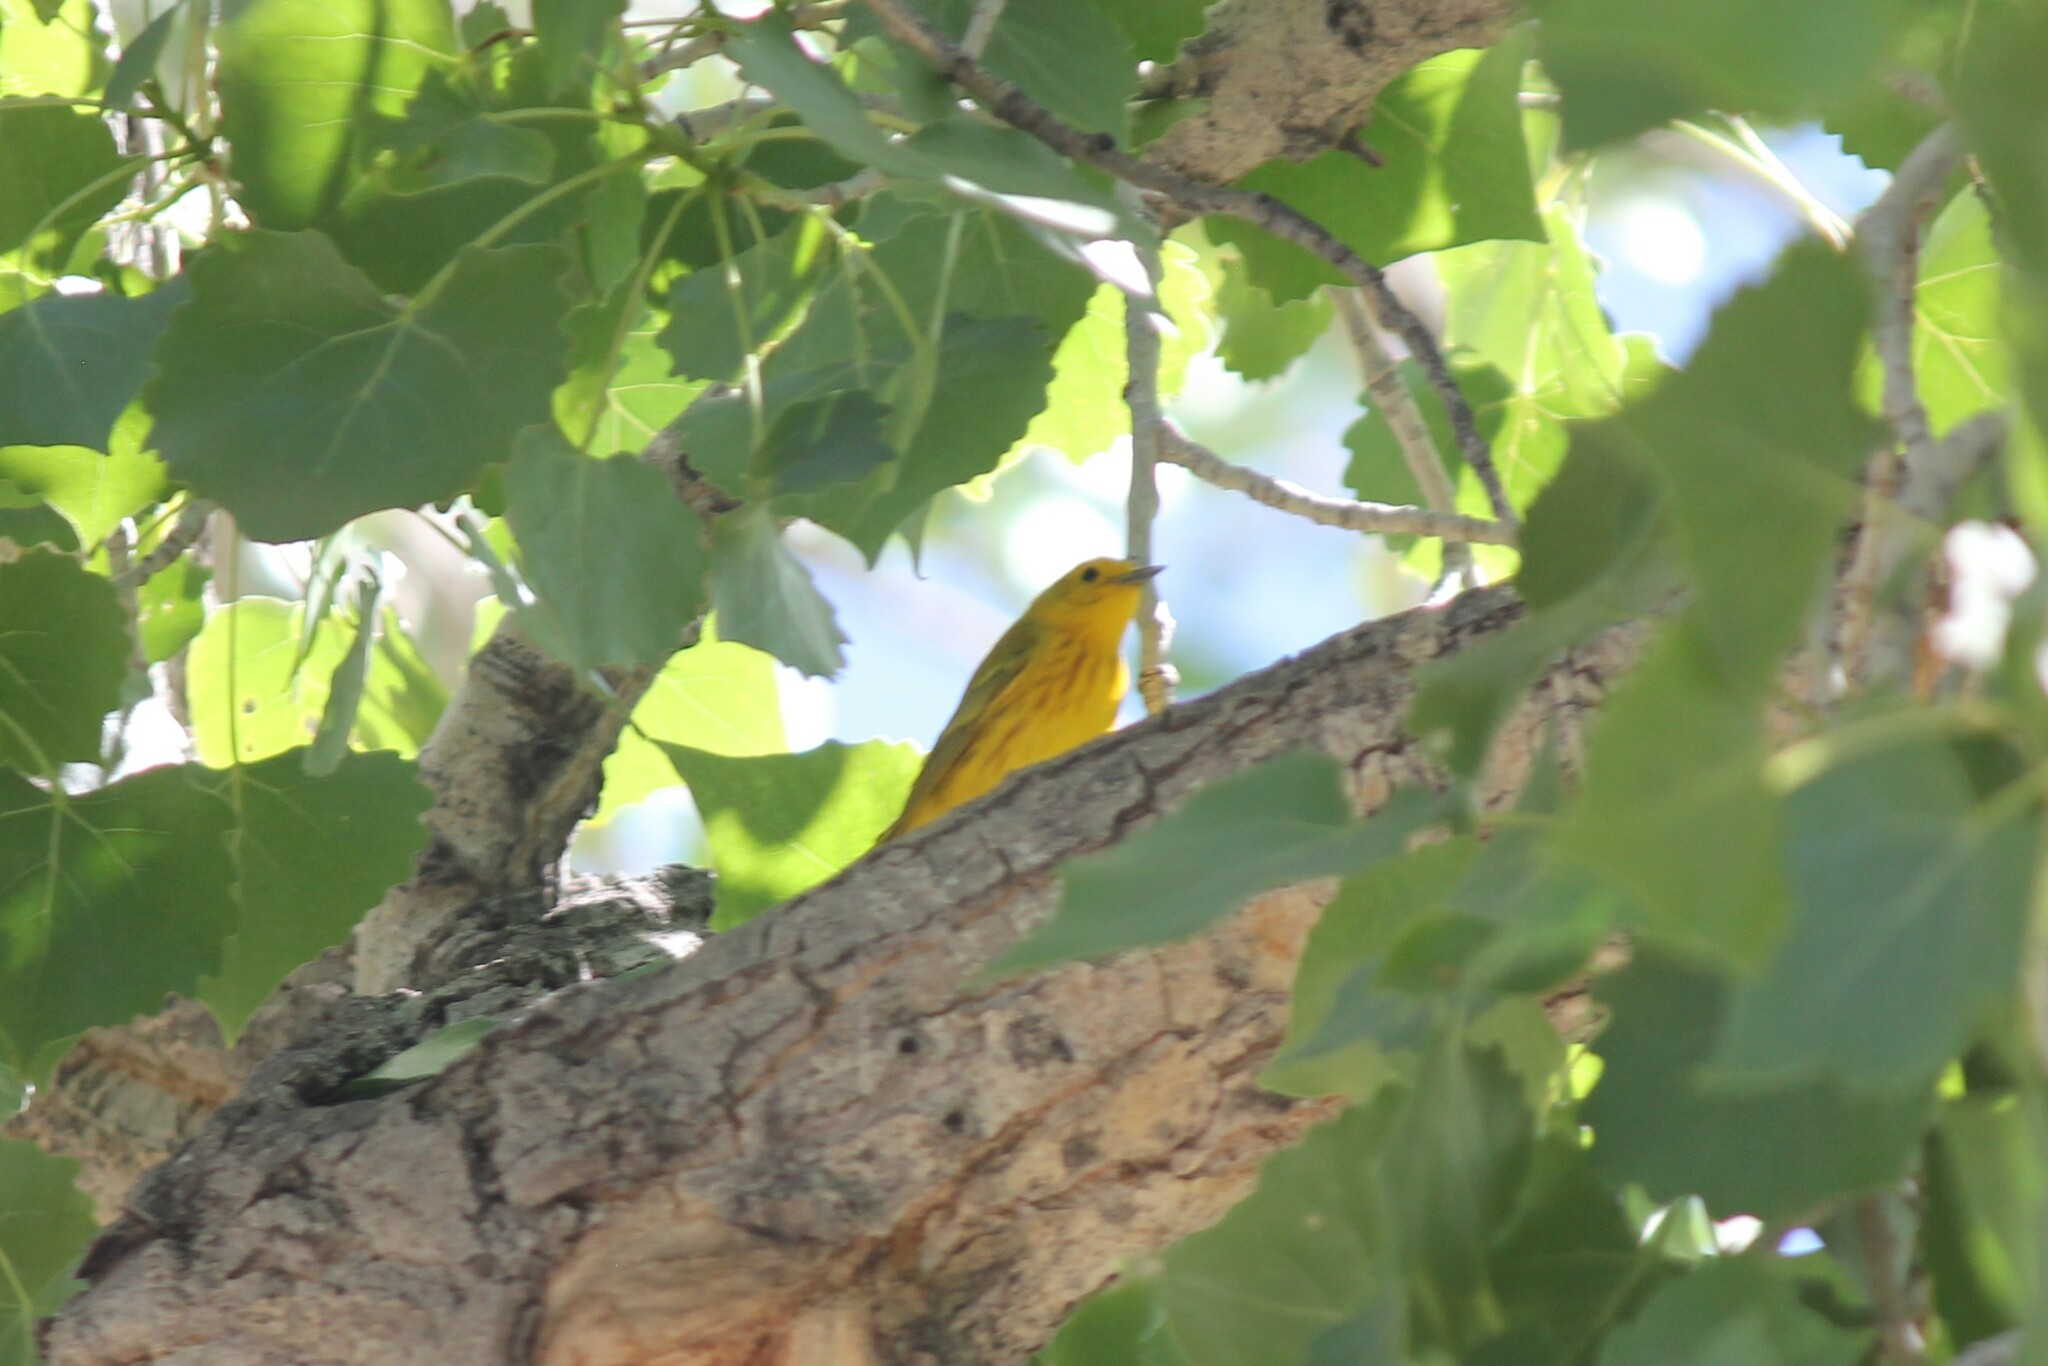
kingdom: Animalia
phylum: Chordata
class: Aves
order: Passeriformes
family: Parulidae
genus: Setophaga
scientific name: Setophaga petechia
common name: Yellow warbler
